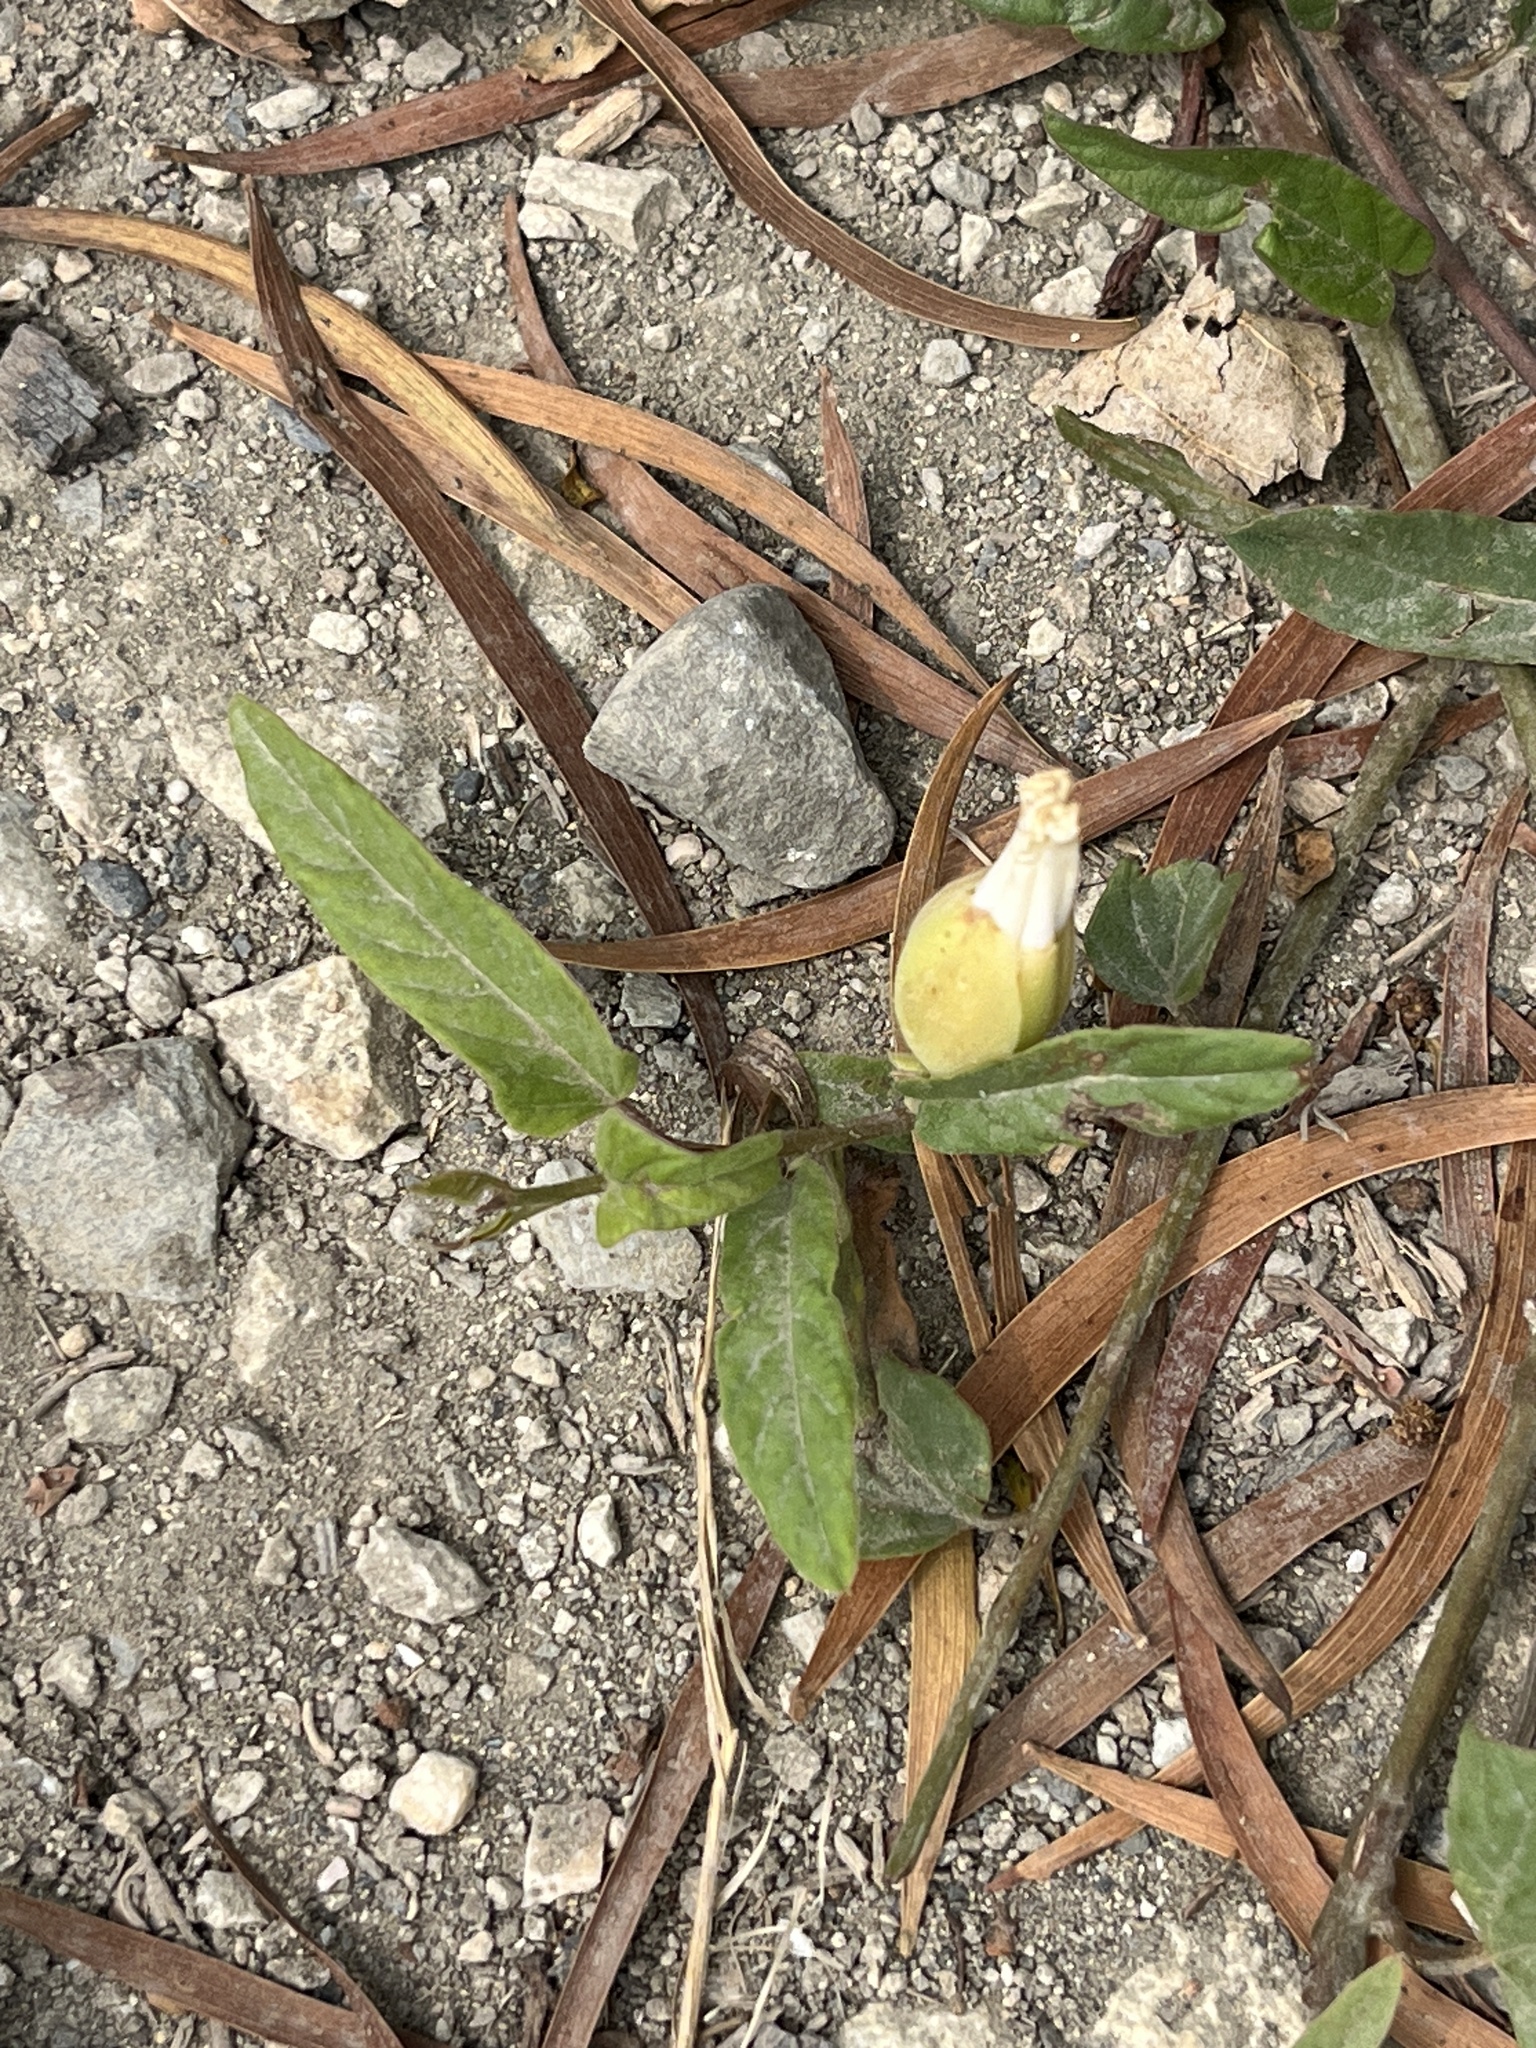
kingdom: Plantae
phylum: Tracheophyta
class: Magnoliopsida
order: Solanales
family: Convolvulaceae
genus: Operculina
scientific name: Operculina turpethum
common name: Transparent wood-rose
